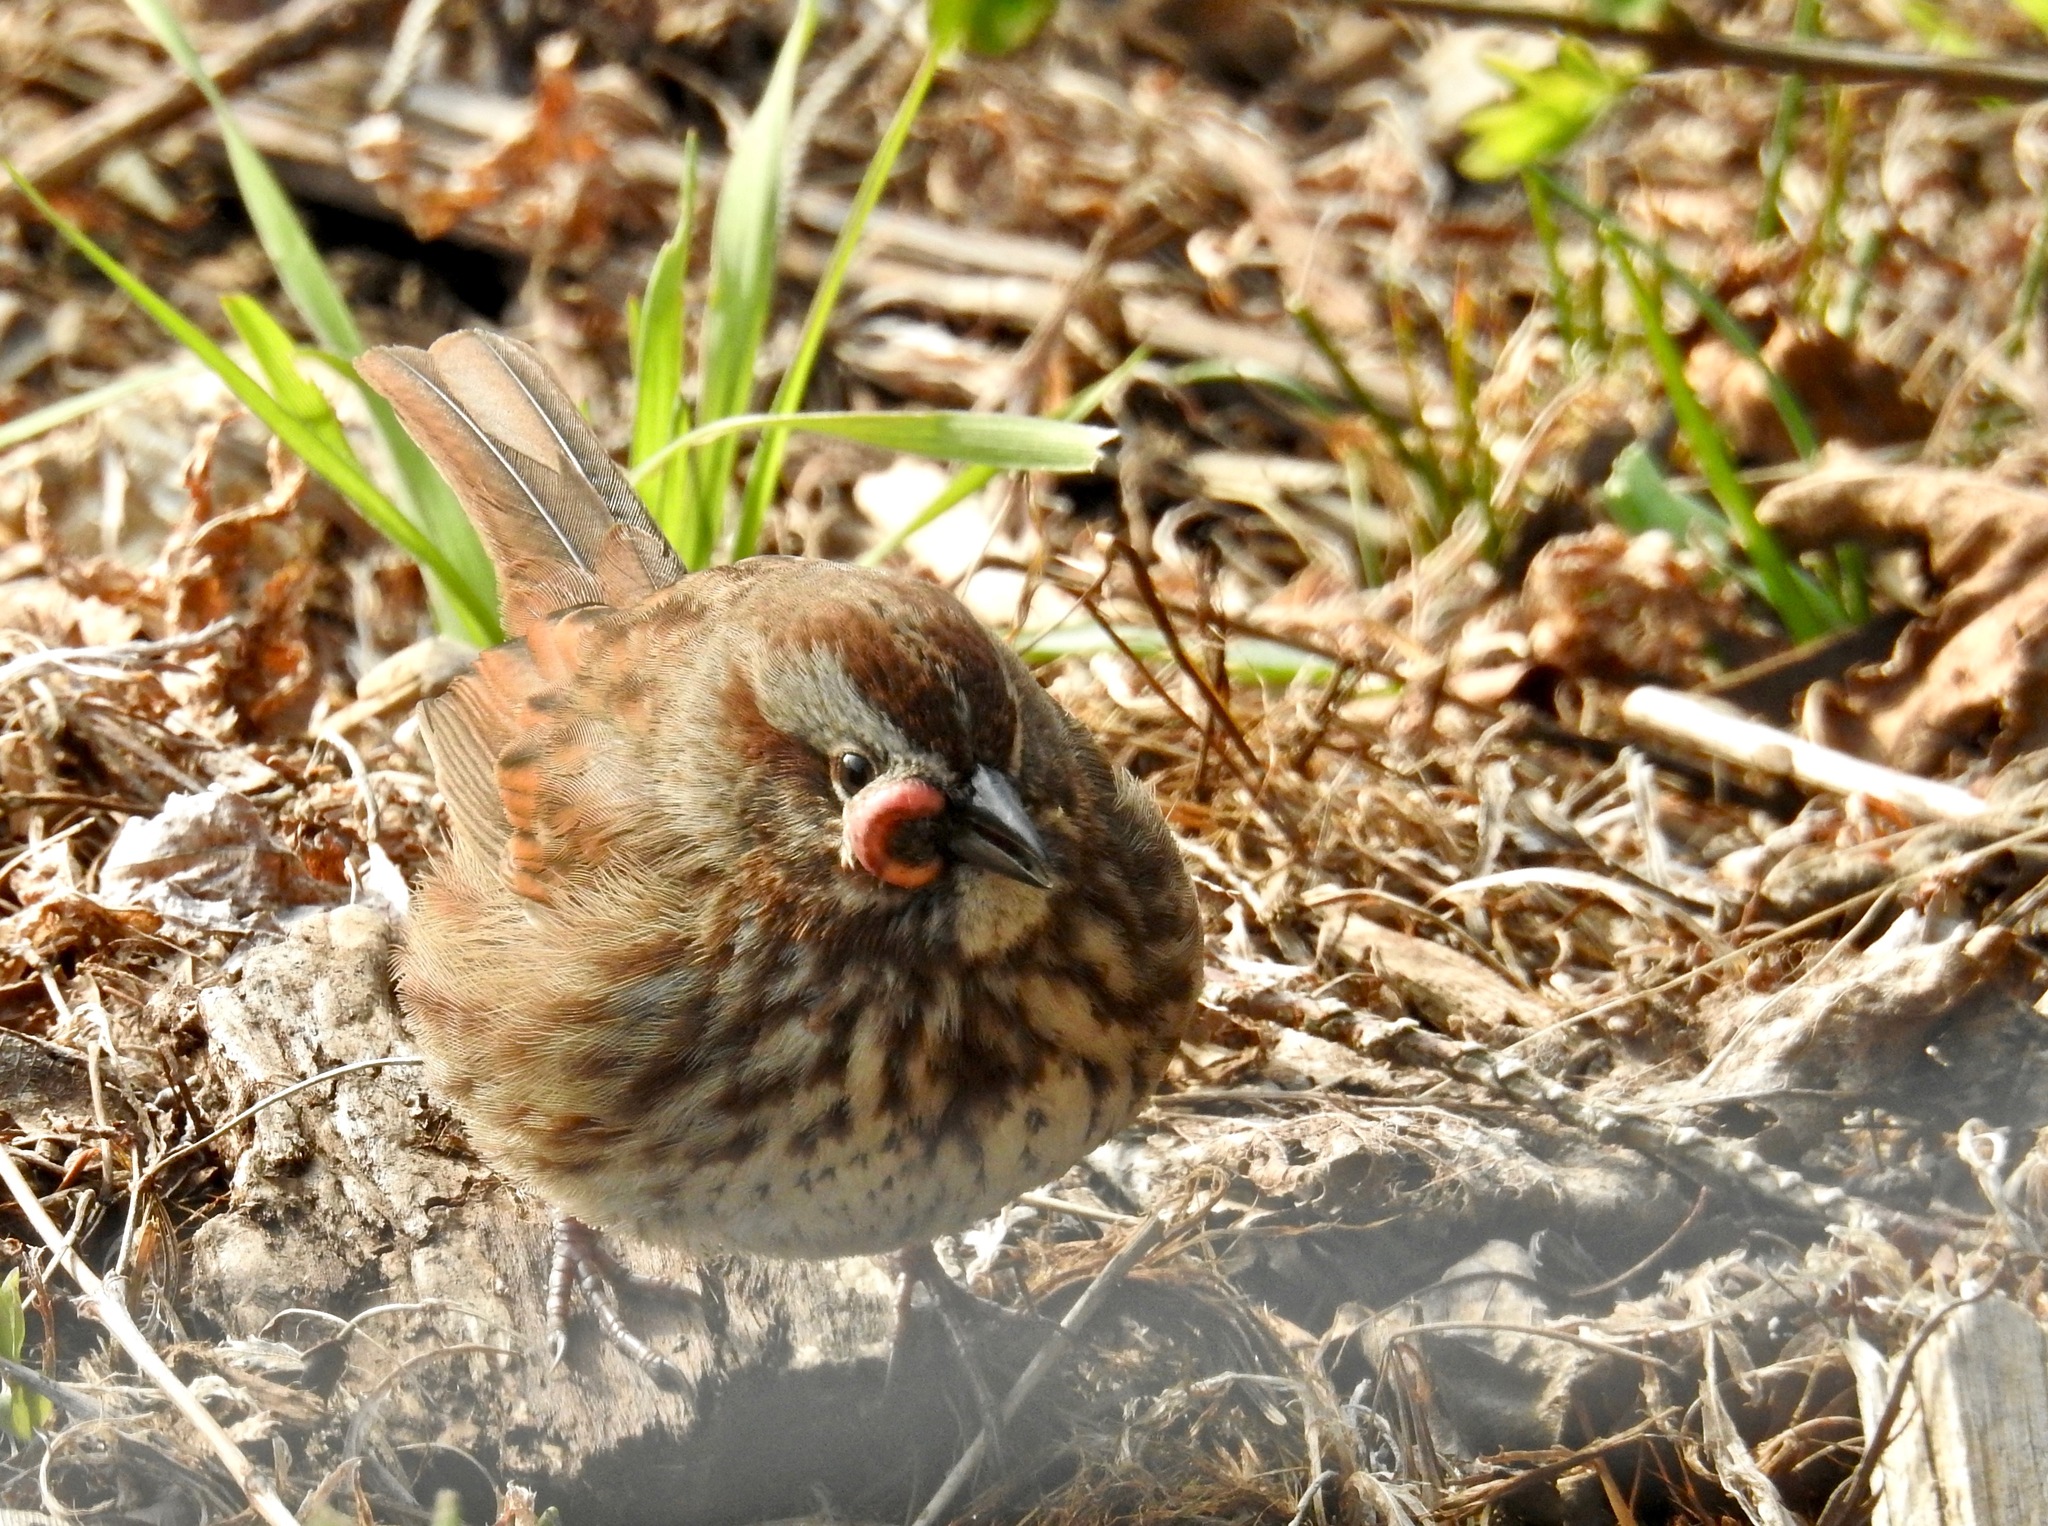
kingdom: Animalia
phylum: Chordata
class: Aves
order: Passeriformes
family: Passerellidae
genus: Melospiza
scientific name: Melospiza melodia
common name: Song sparrow
